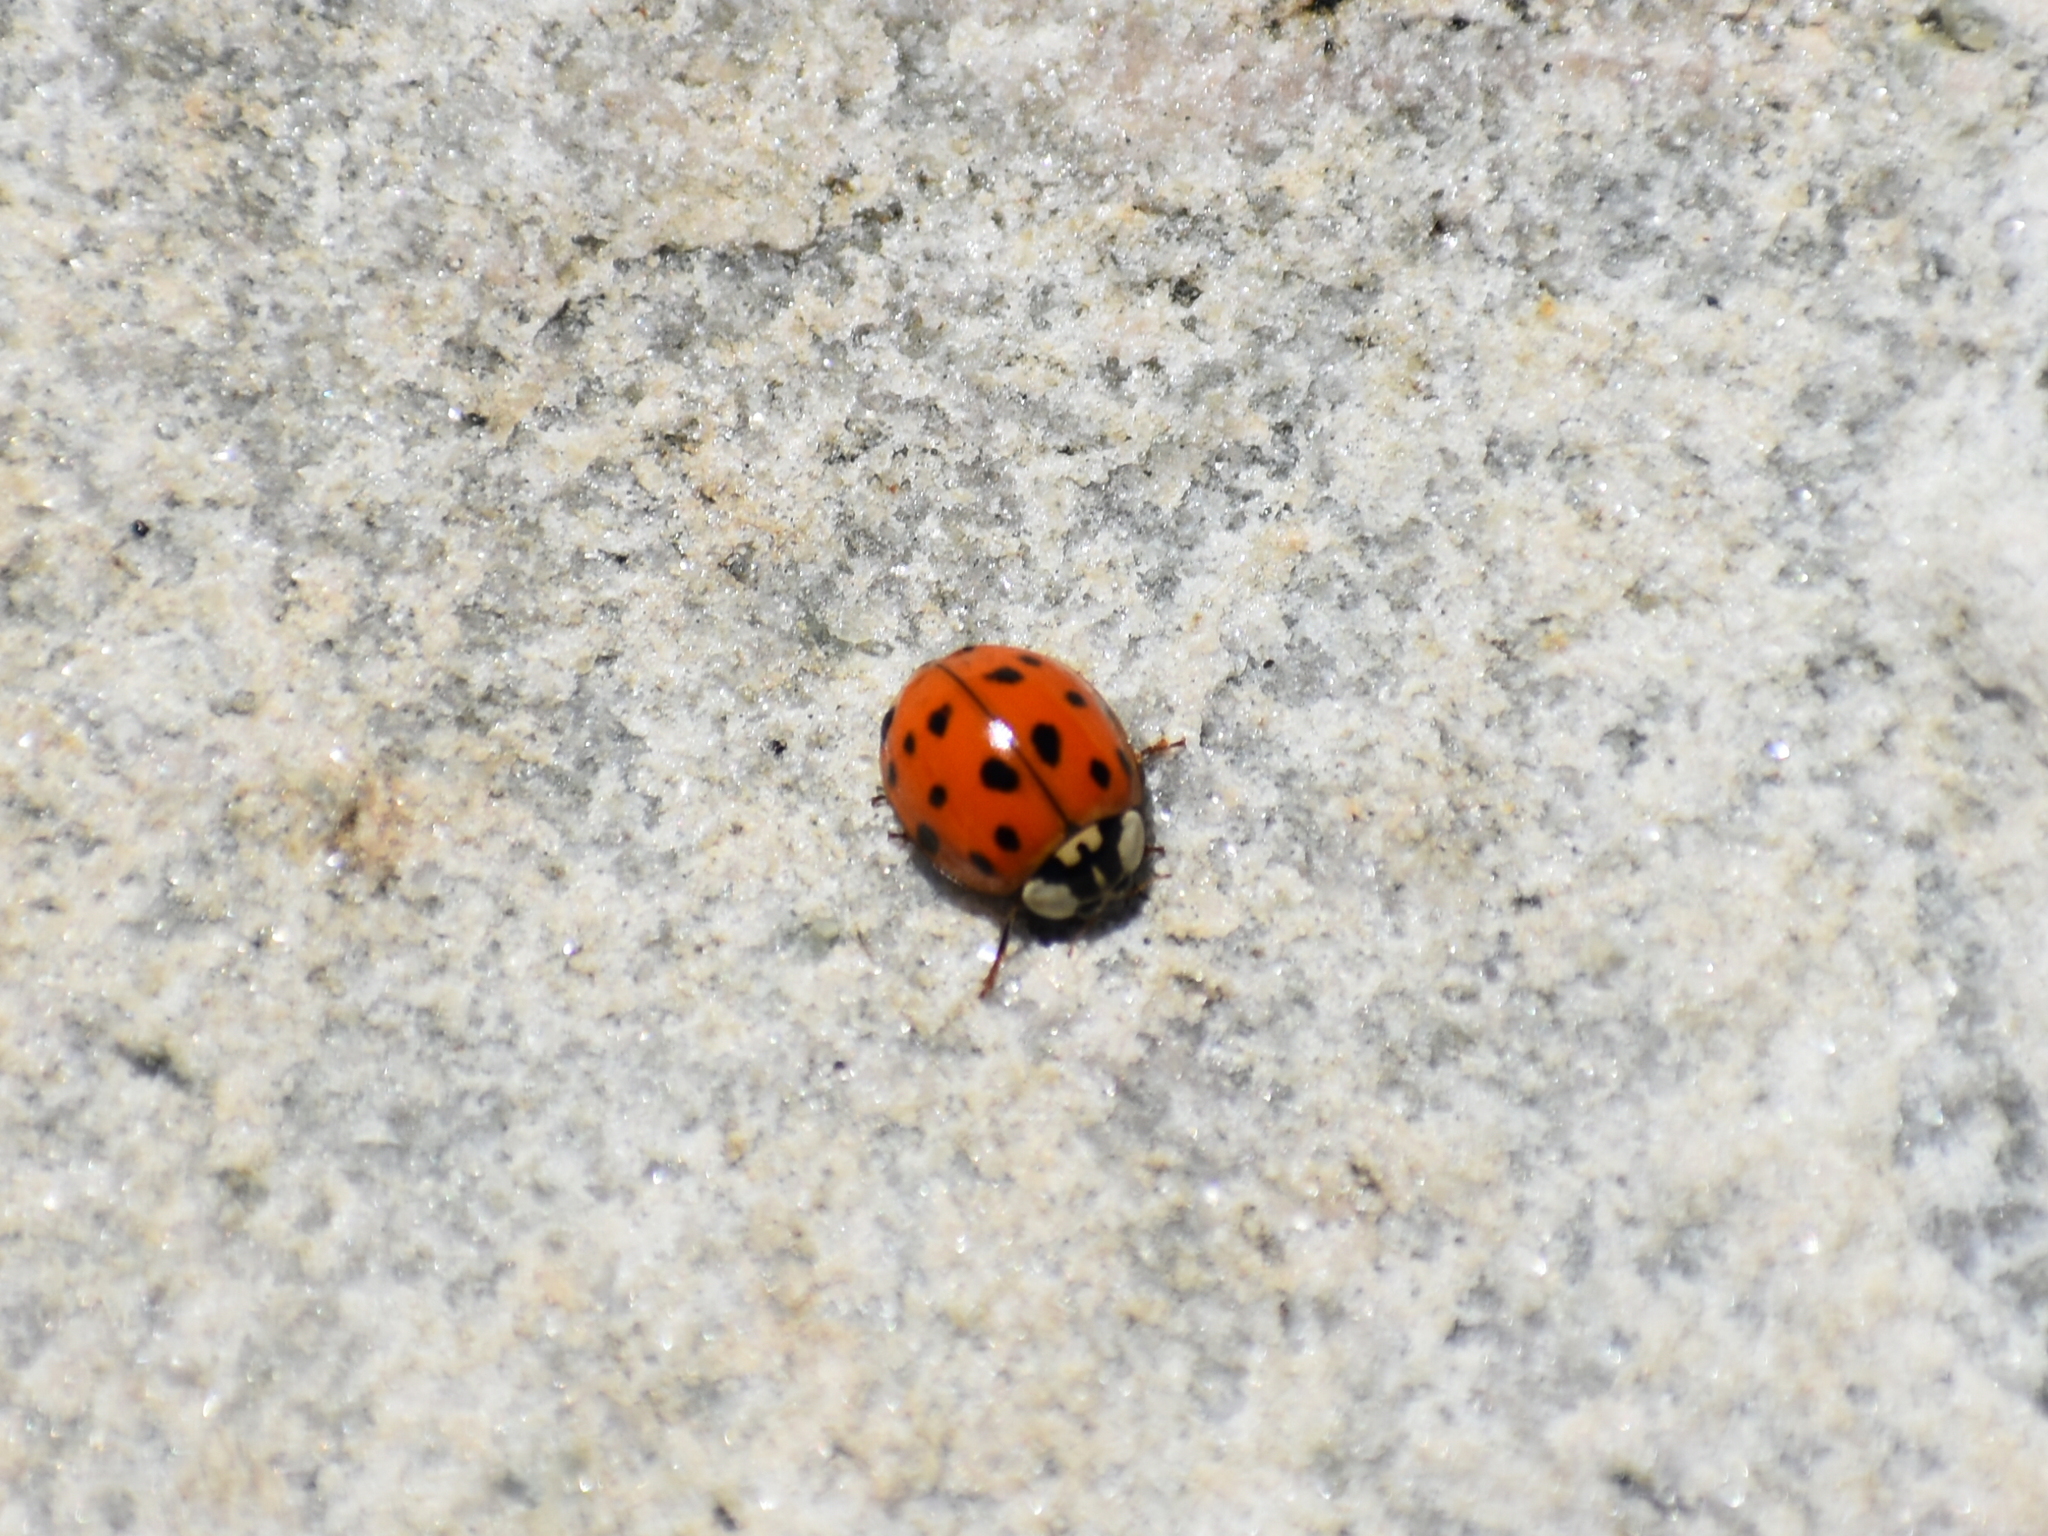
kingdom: Animalia
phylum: Arthropoda
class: Insecta
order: Coleoptera
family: Coccinellidae
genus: Harmonia
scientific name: Harmonia axyridis
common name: Harlequin ladybird
